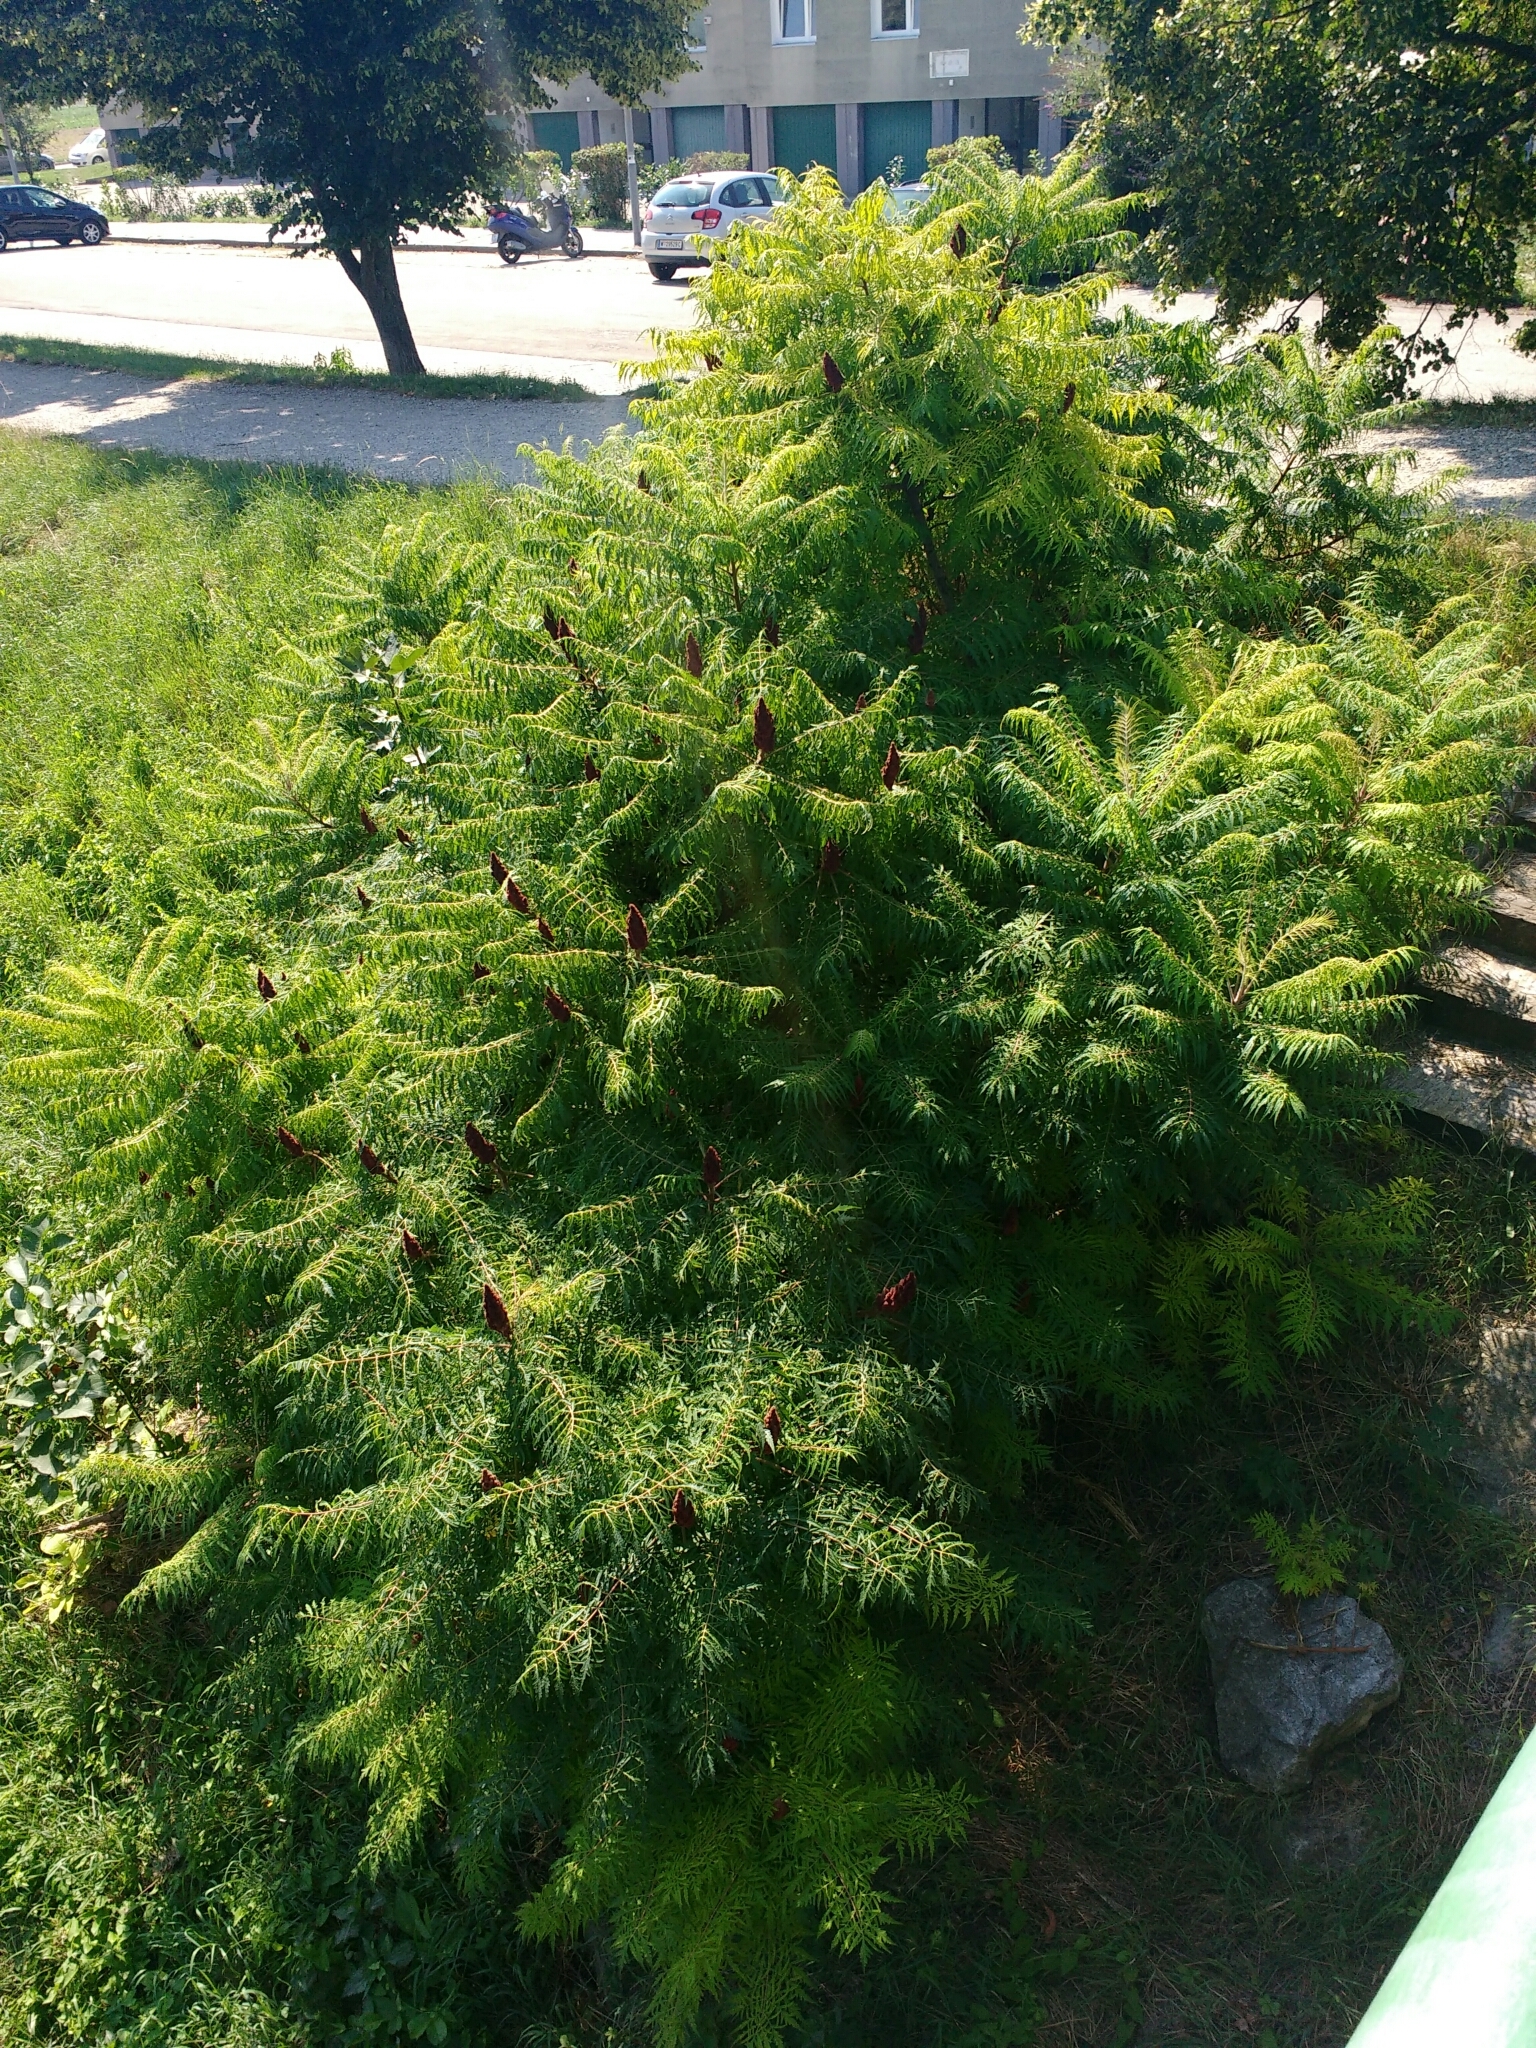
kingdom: Plantae
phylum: Tracheophyta
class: Magnoliopsida
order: Sapindales
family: Anacardiaceae
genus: Rhus
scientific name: Rhus typhina
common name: Staghorn sumac
